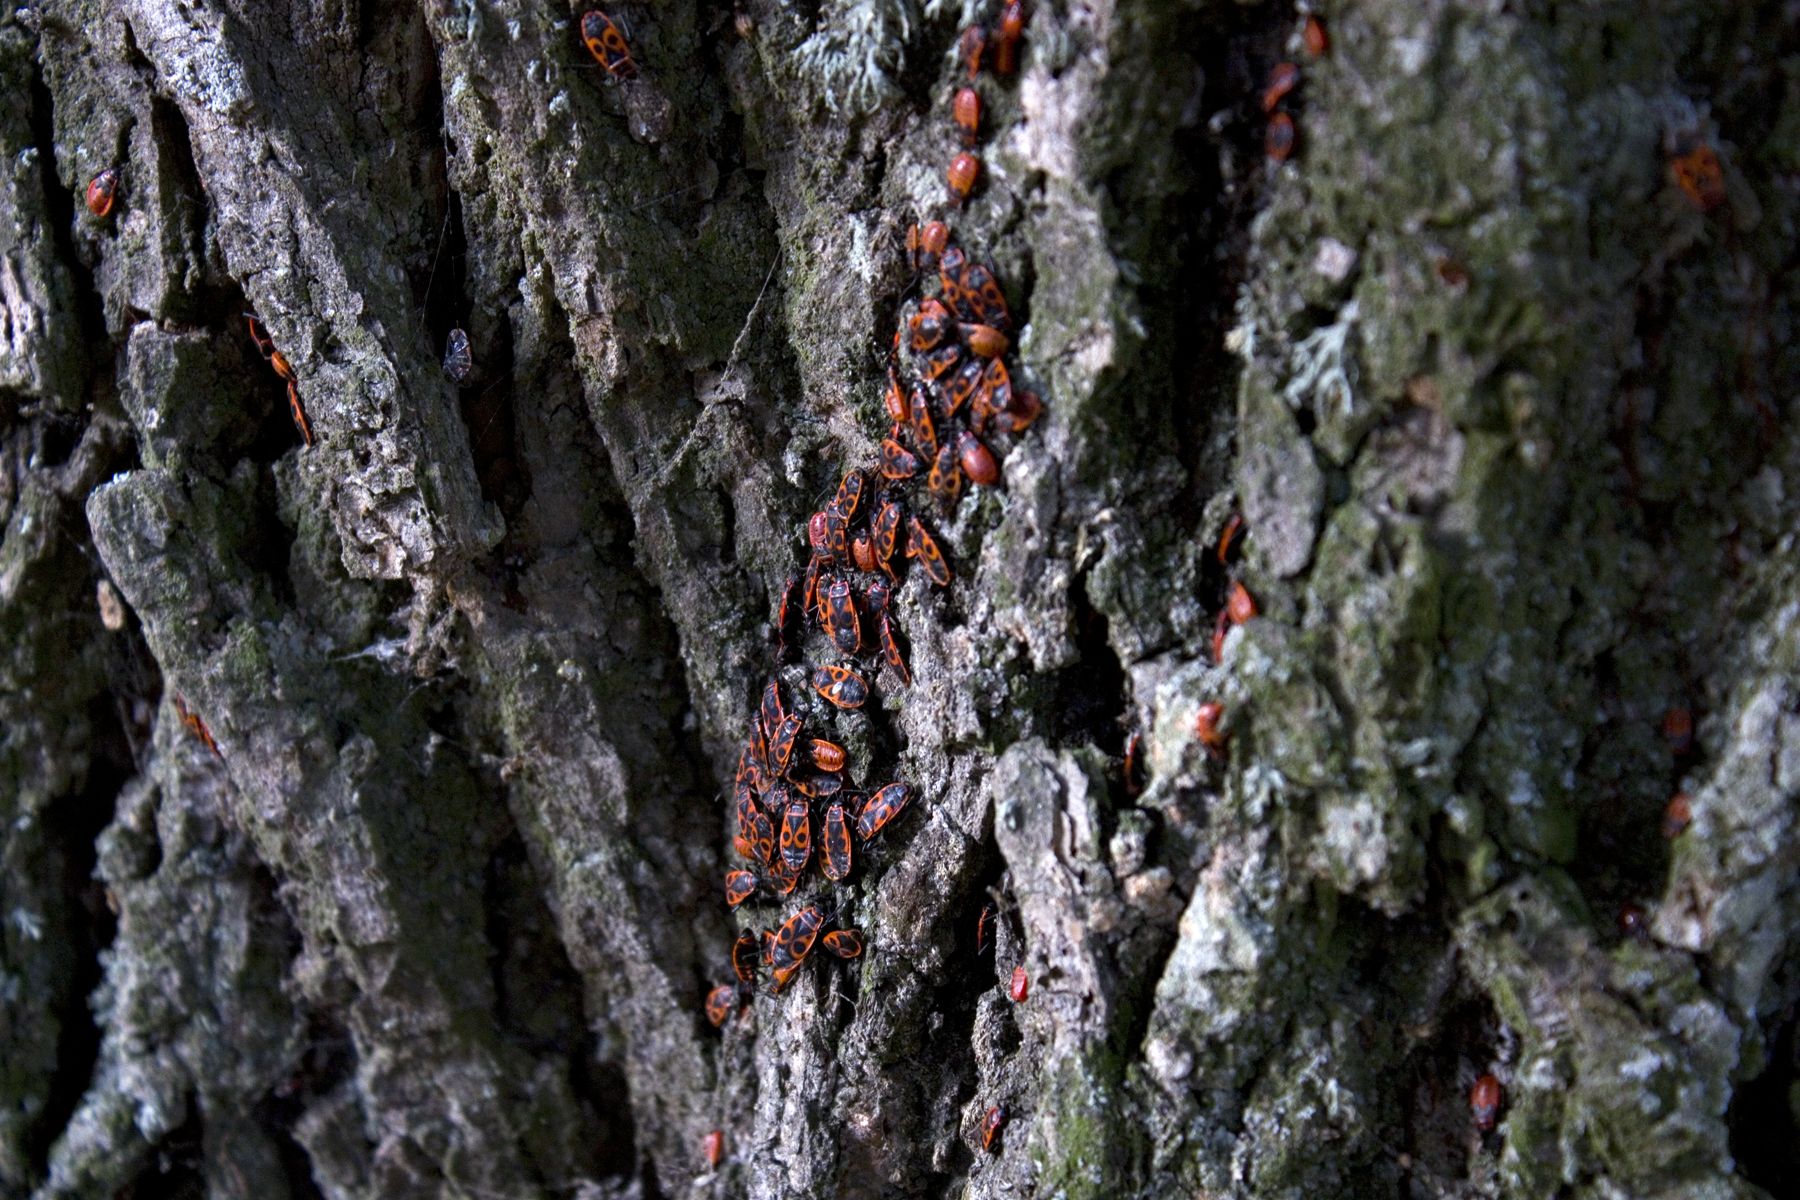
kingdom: Animalia
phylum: Arthropoda
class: Insecta
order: Hemiptera
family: Pyrrhocoridae
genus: Pyrrhocoris
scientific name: Pyrrhocoris apterus
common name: Firebug
